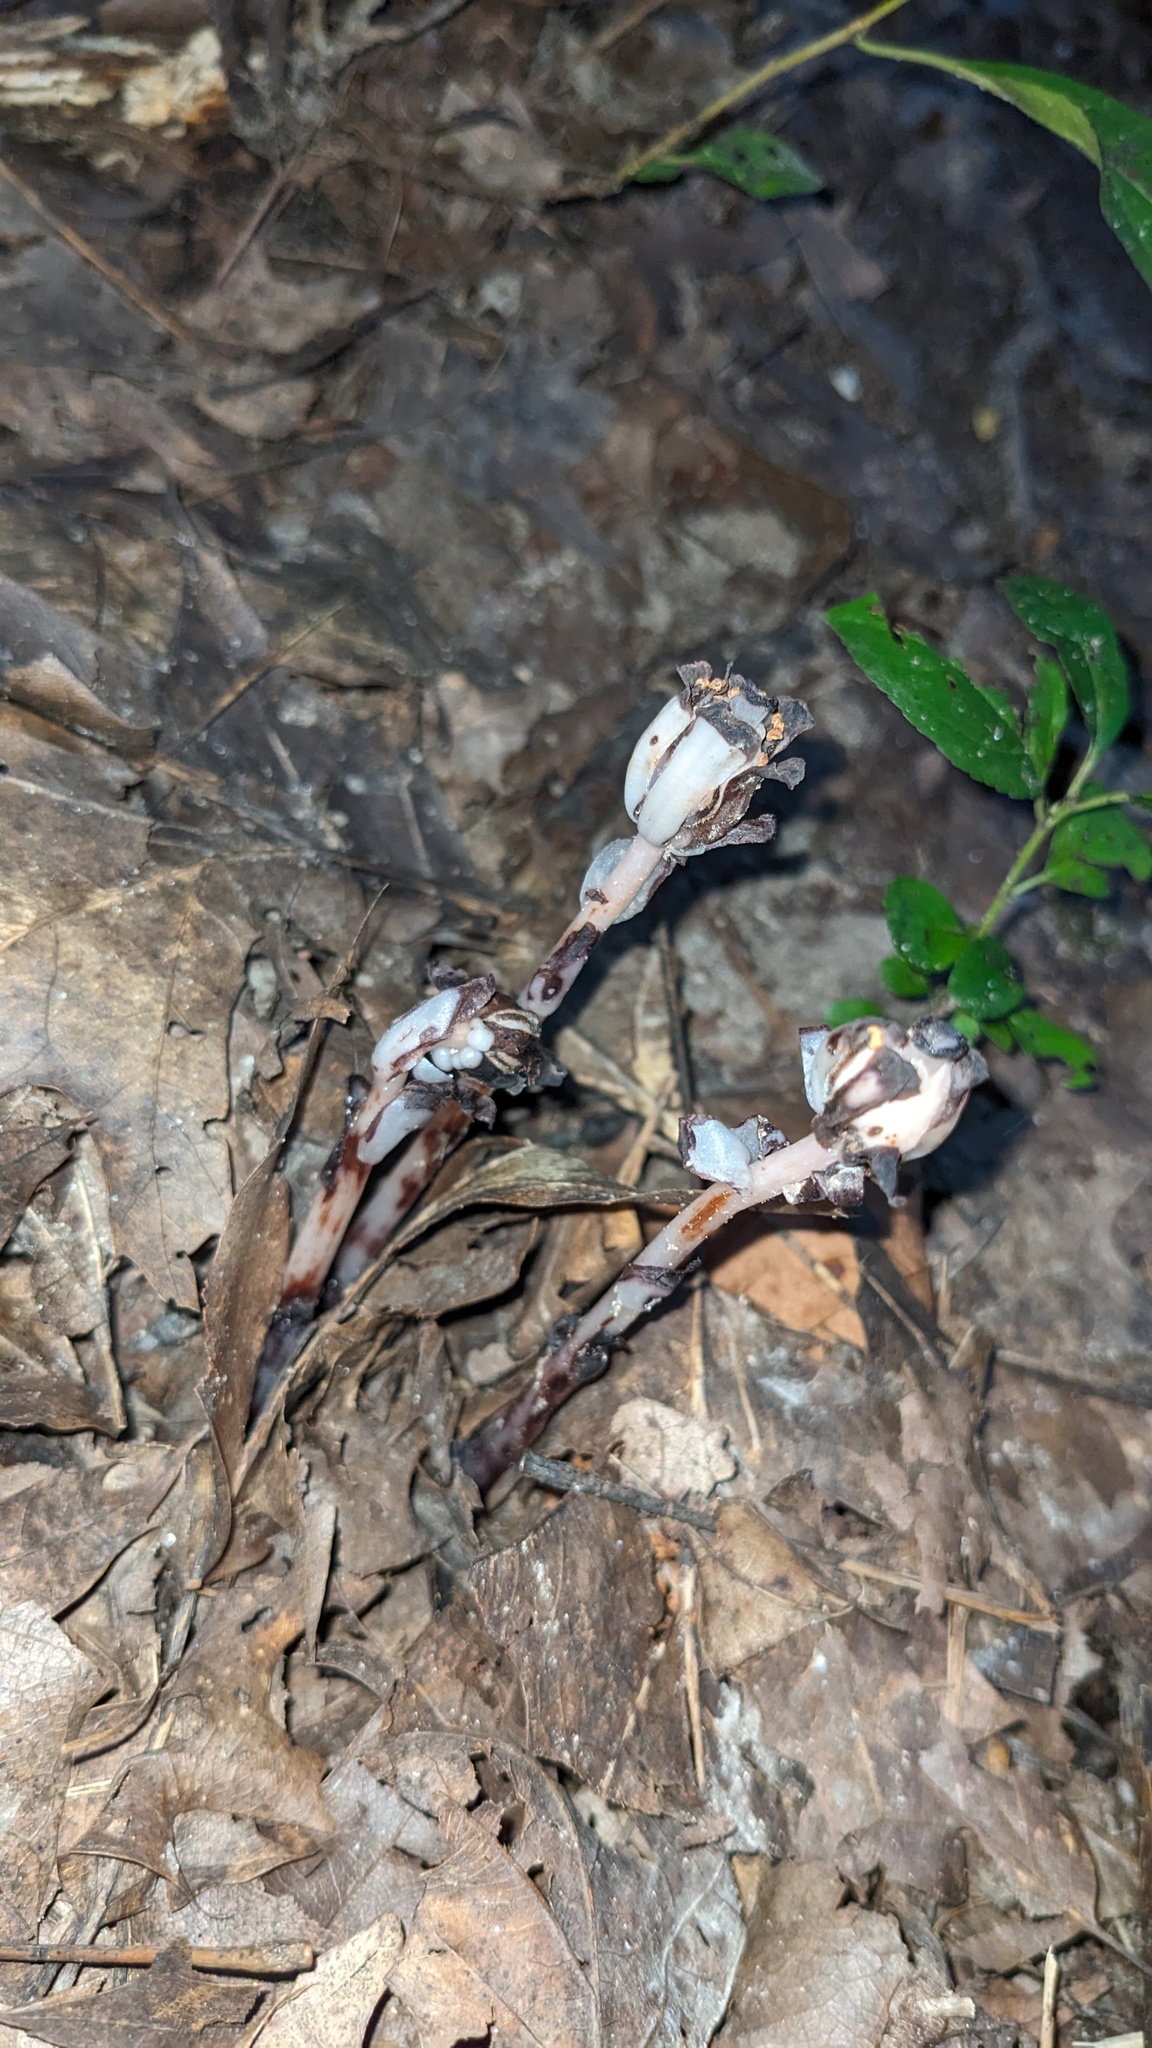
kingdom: Plantae
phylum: Tracheophyta
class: Magnoliopsida
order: Ericales
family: Ericaceae
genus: Monotropa
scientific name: Monotropa uniflora
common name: Convulsion root
